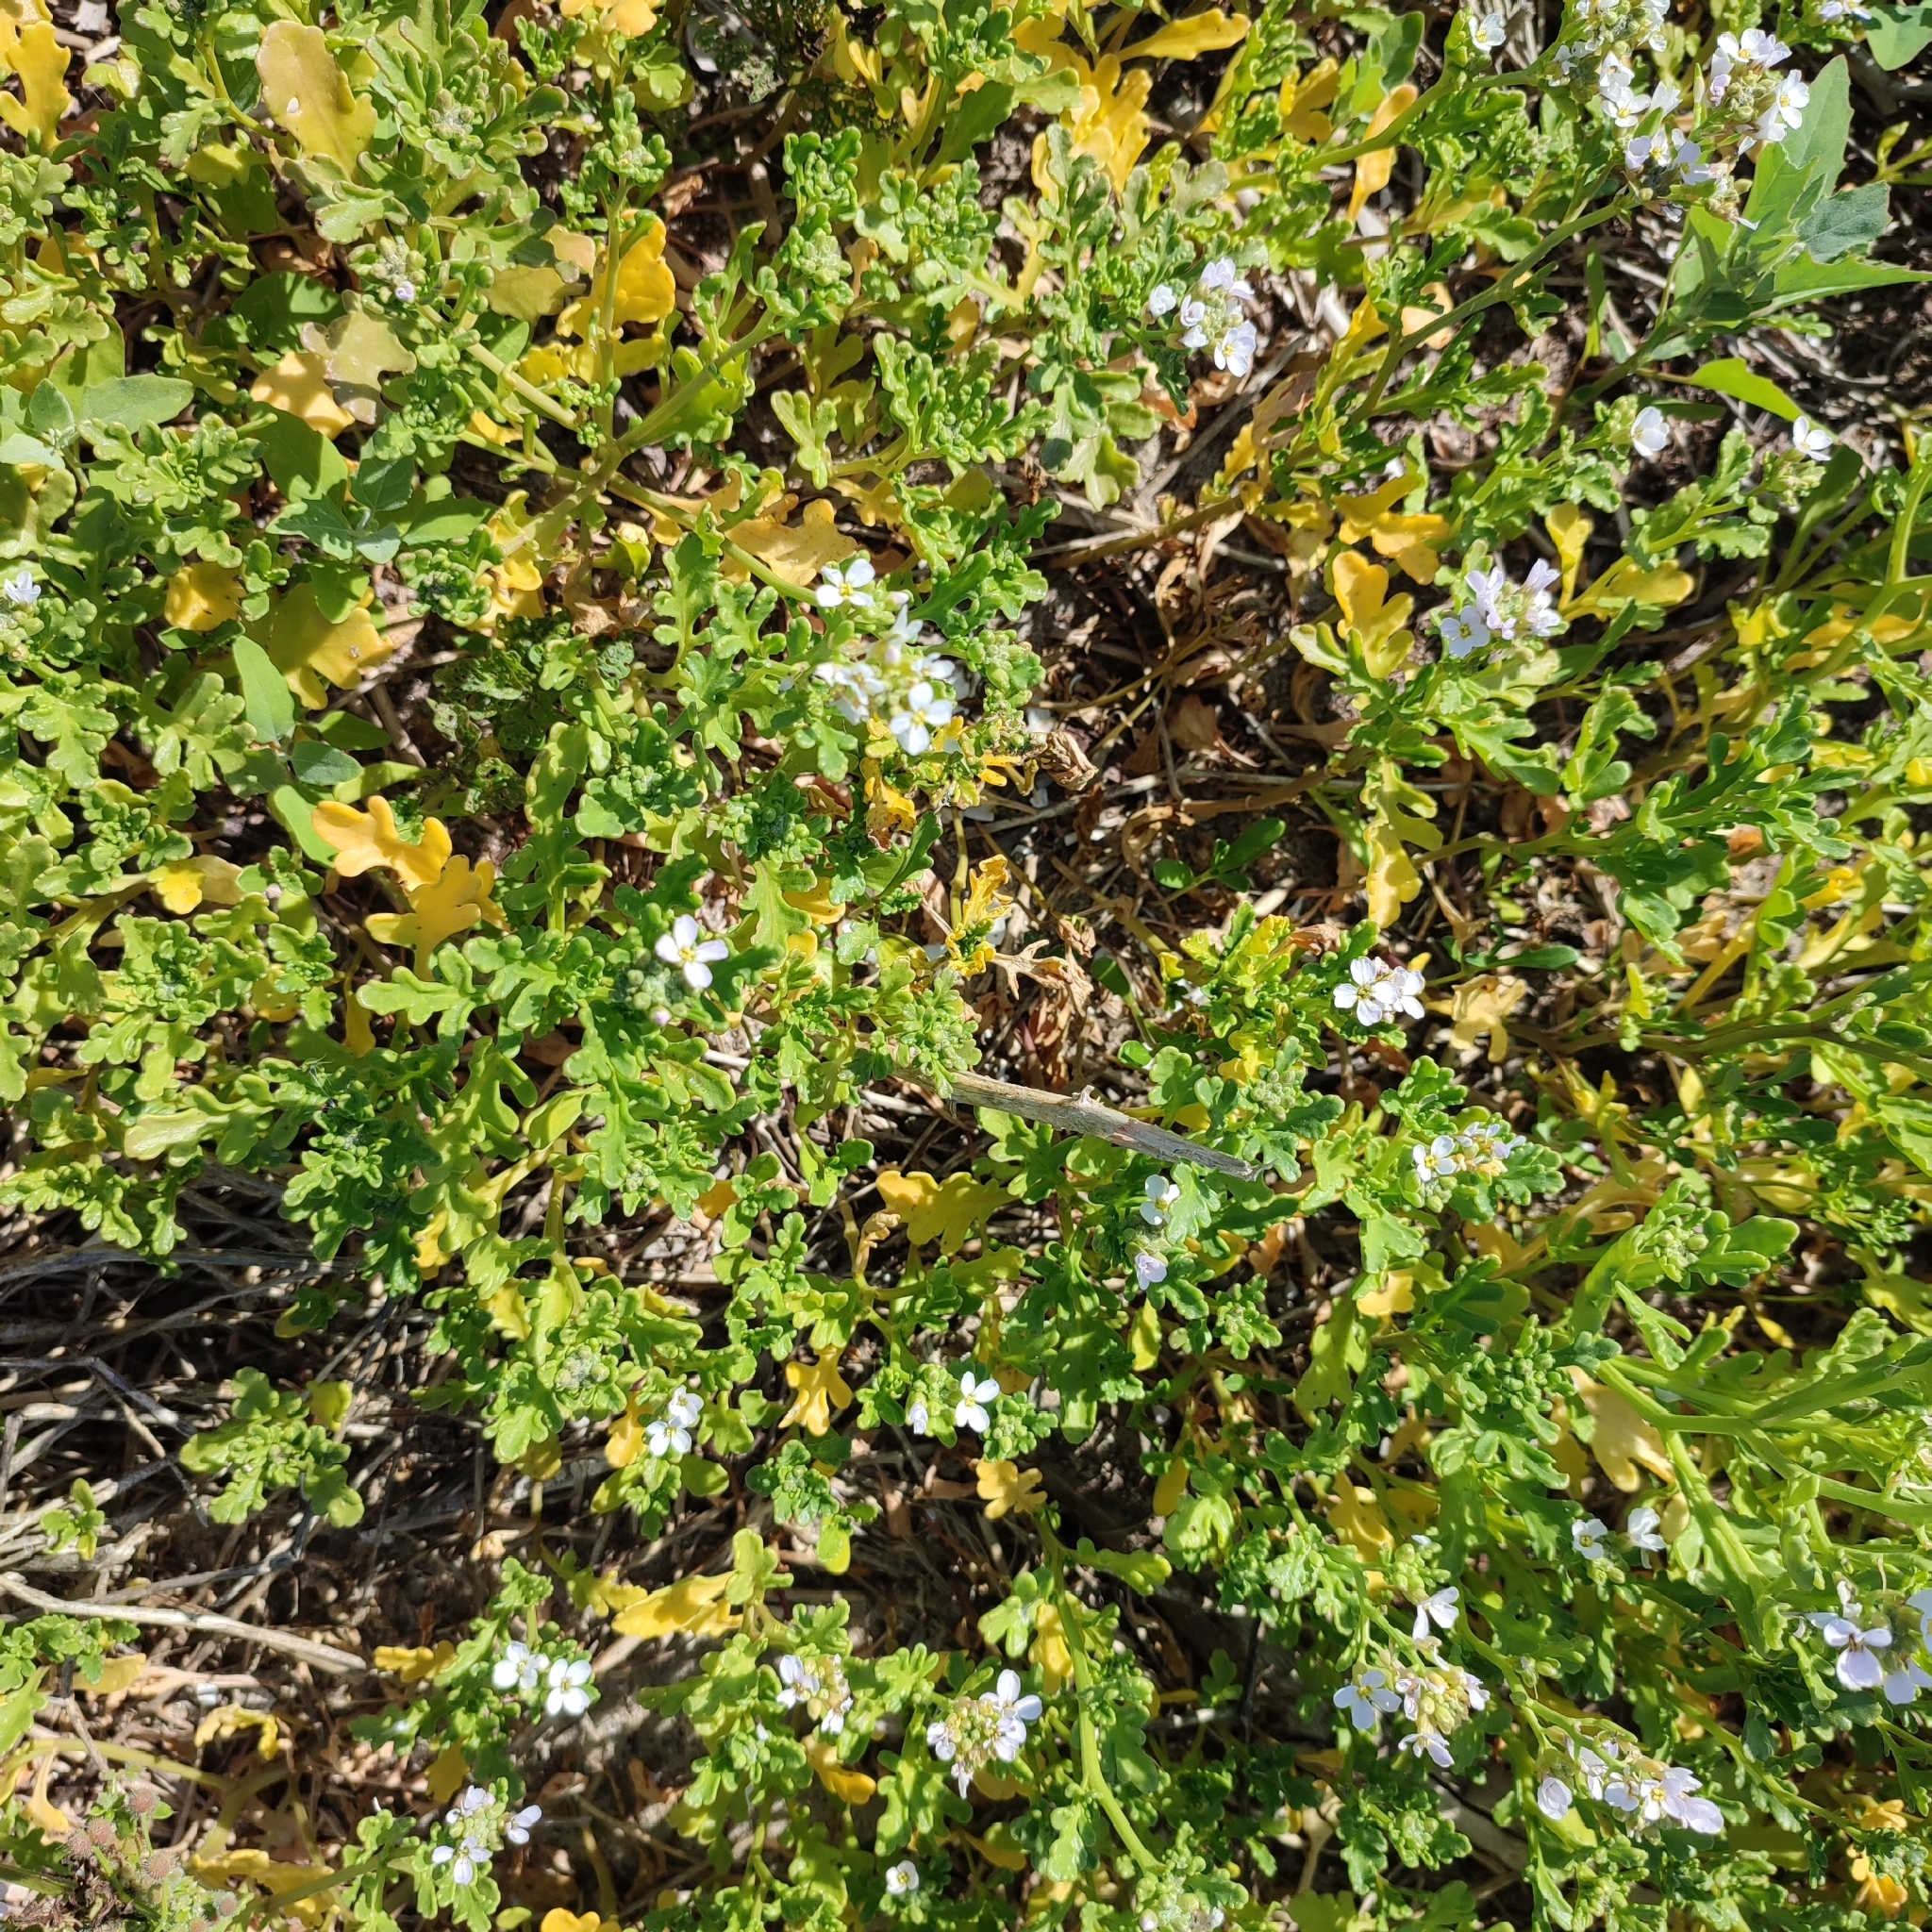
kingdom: Plantae
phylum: Tracheophyta
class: Magnoliopsida
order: Brassicales
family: Brassicaceae
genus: Cakile
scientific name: Cakile maritima
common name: Sea rocket
